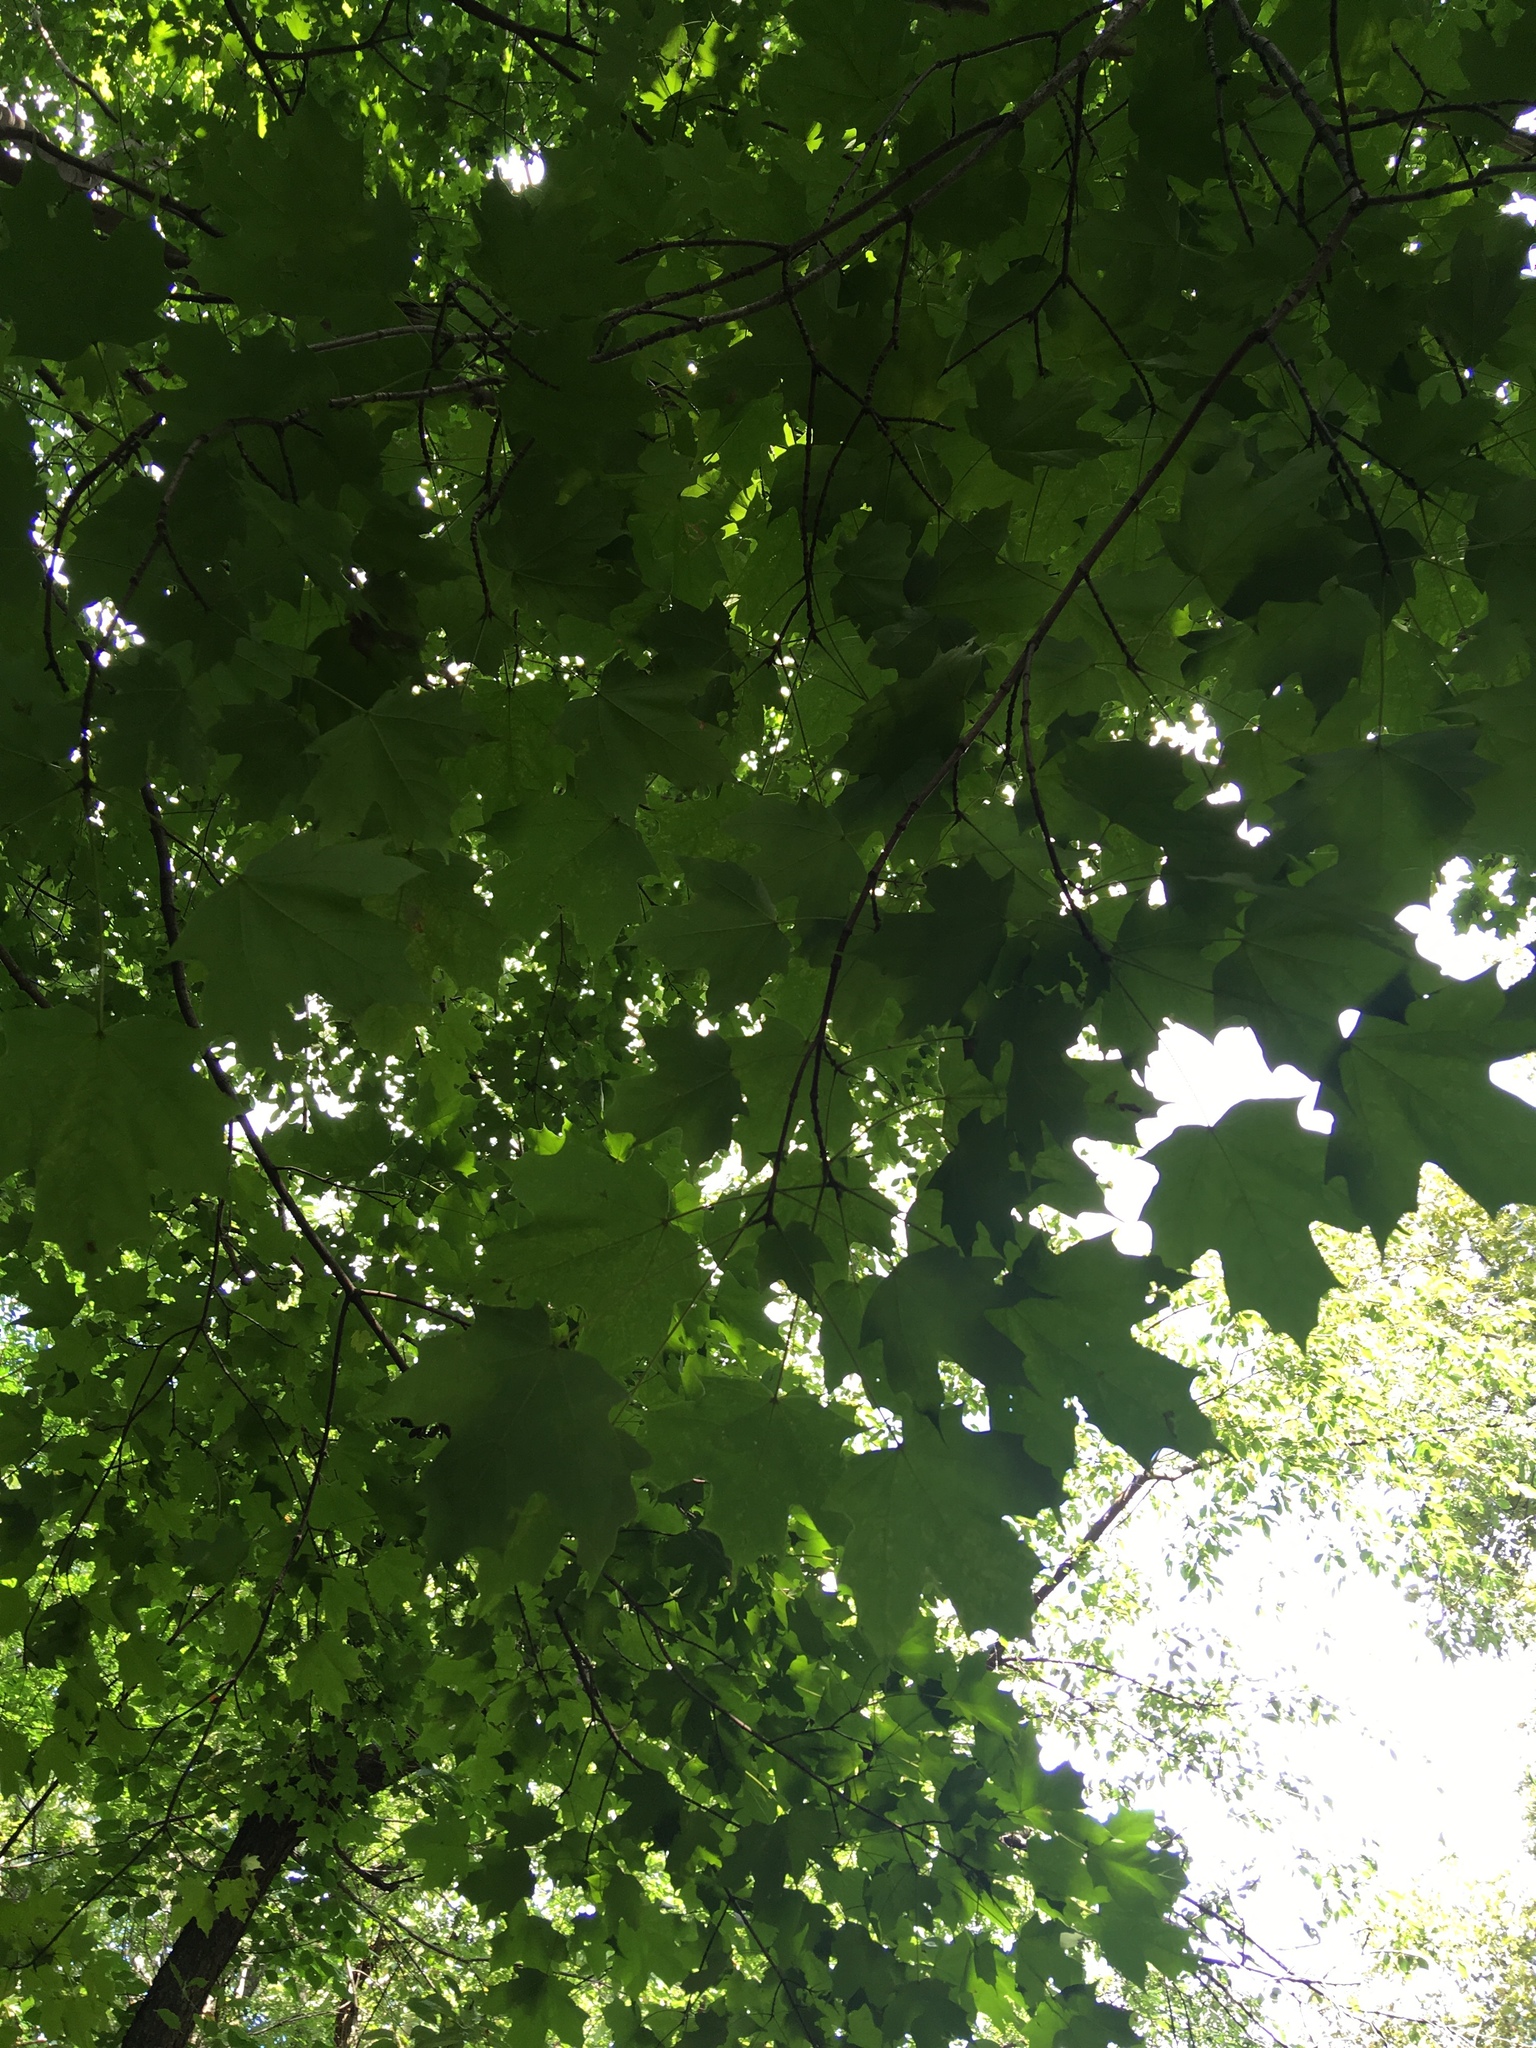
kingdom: Plantae
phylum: Tracheophyta
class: Magnoliopsida
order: Sapindales
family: Sapindaceae
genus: Acer
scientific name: Acer saccharum
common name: Sugar maple
